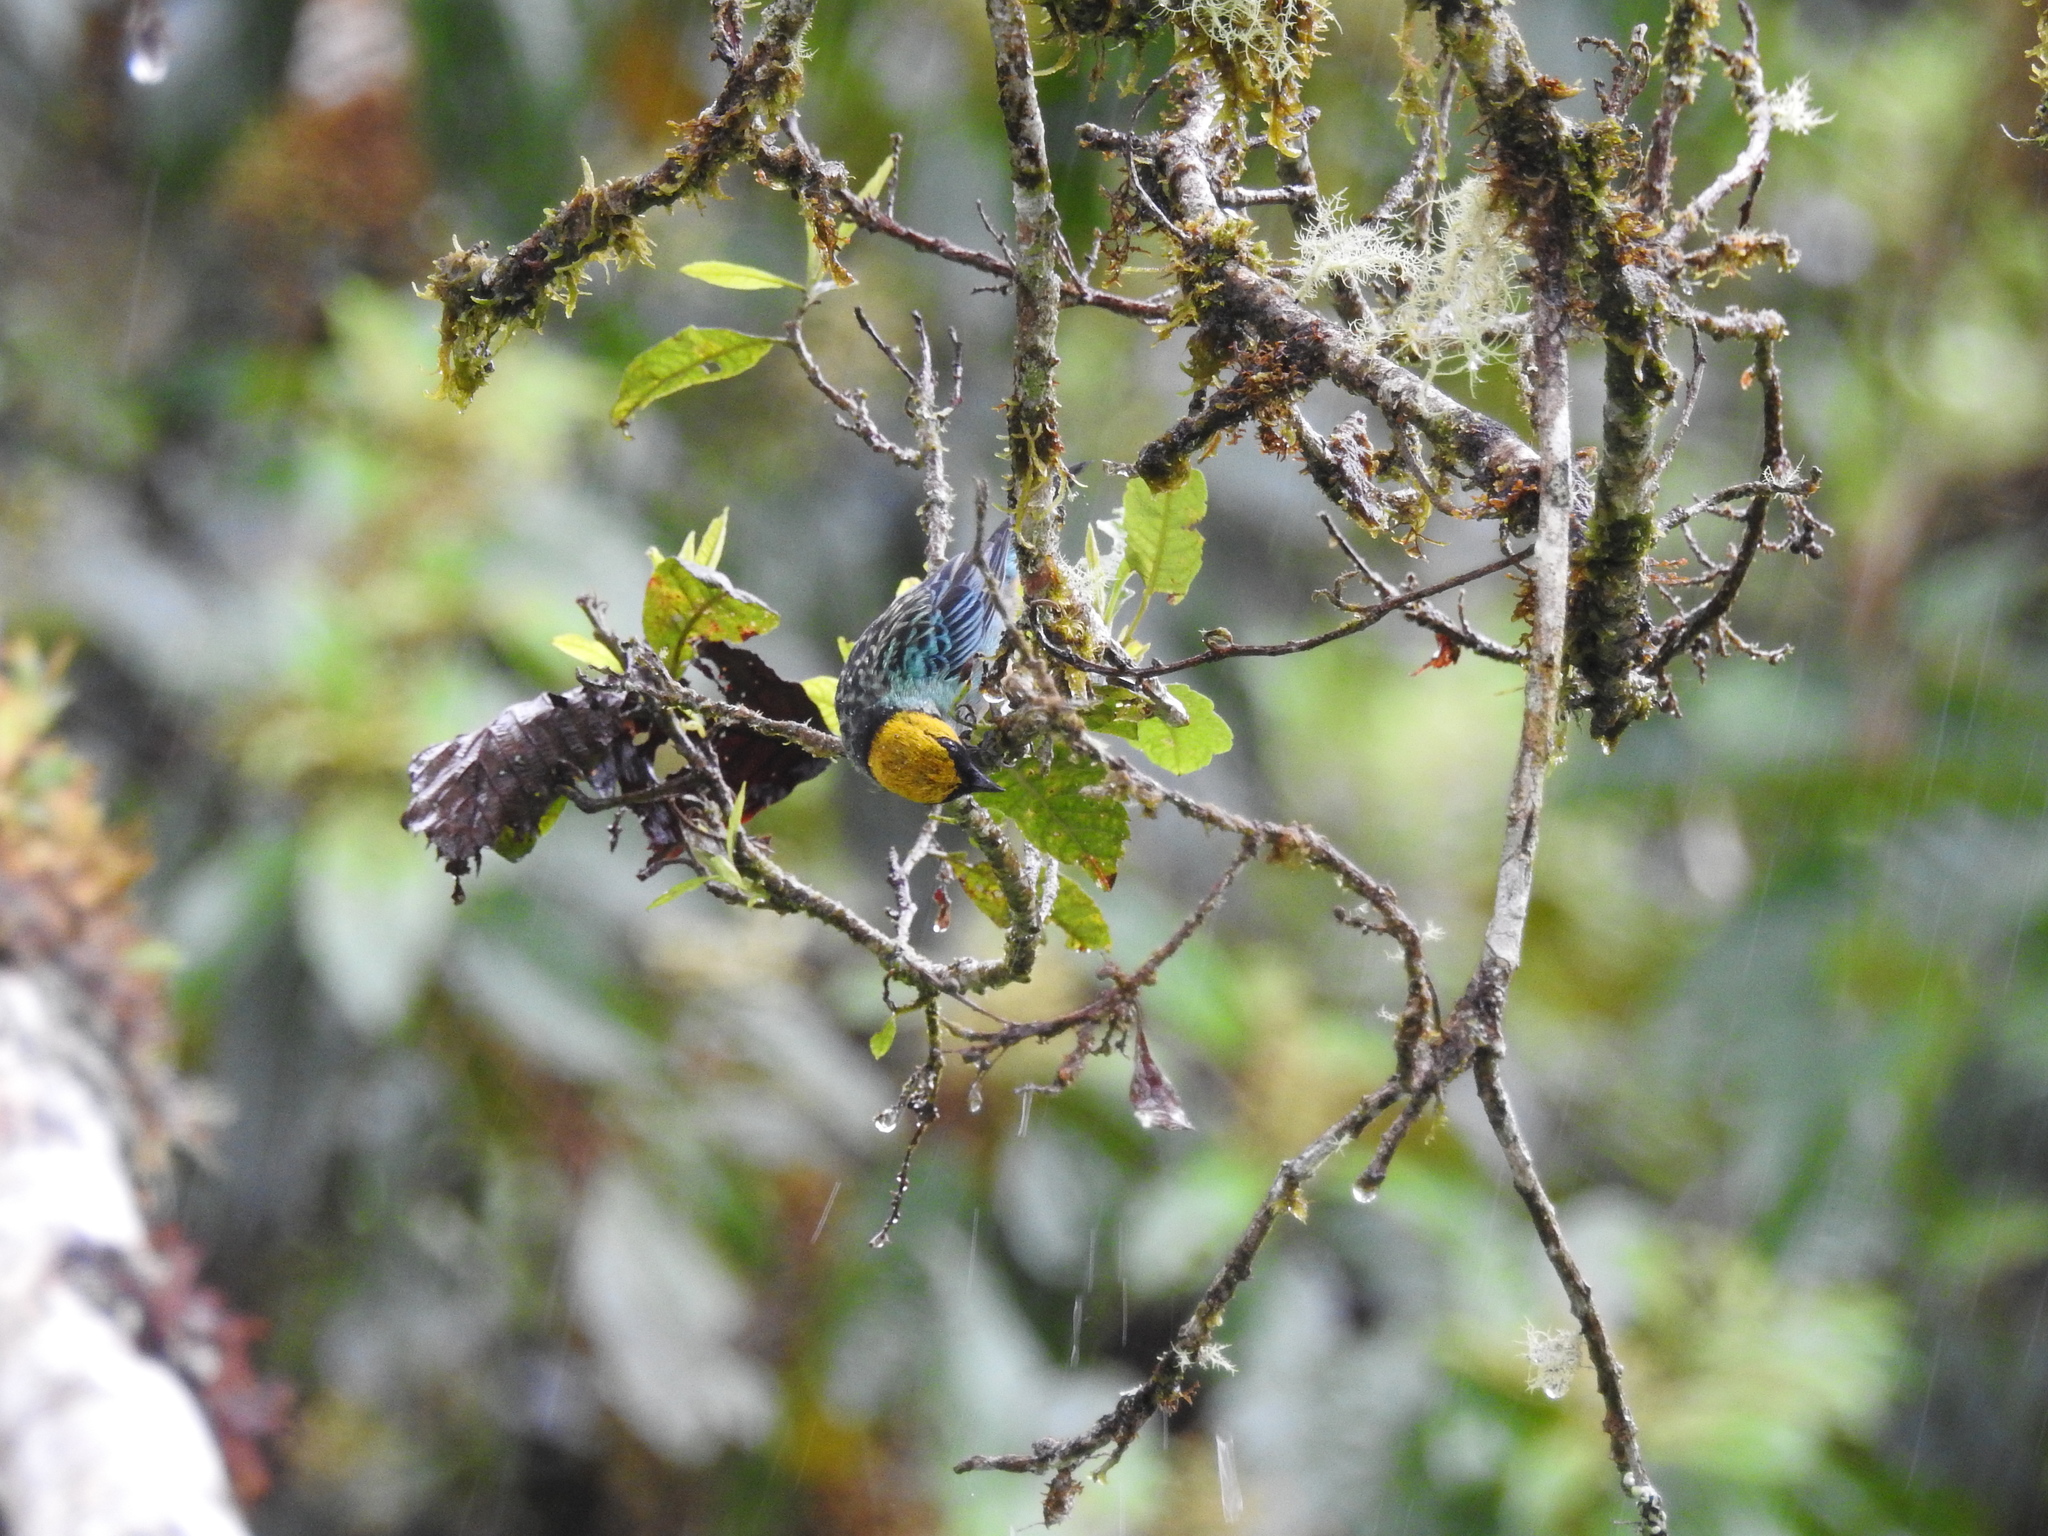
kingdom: Animalia
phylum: Chordata
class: Aves
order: Passeriformes
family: Thraupidae
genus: Tangara
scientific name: Tangara xanthocephala
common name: Saffron-crowned tanager
